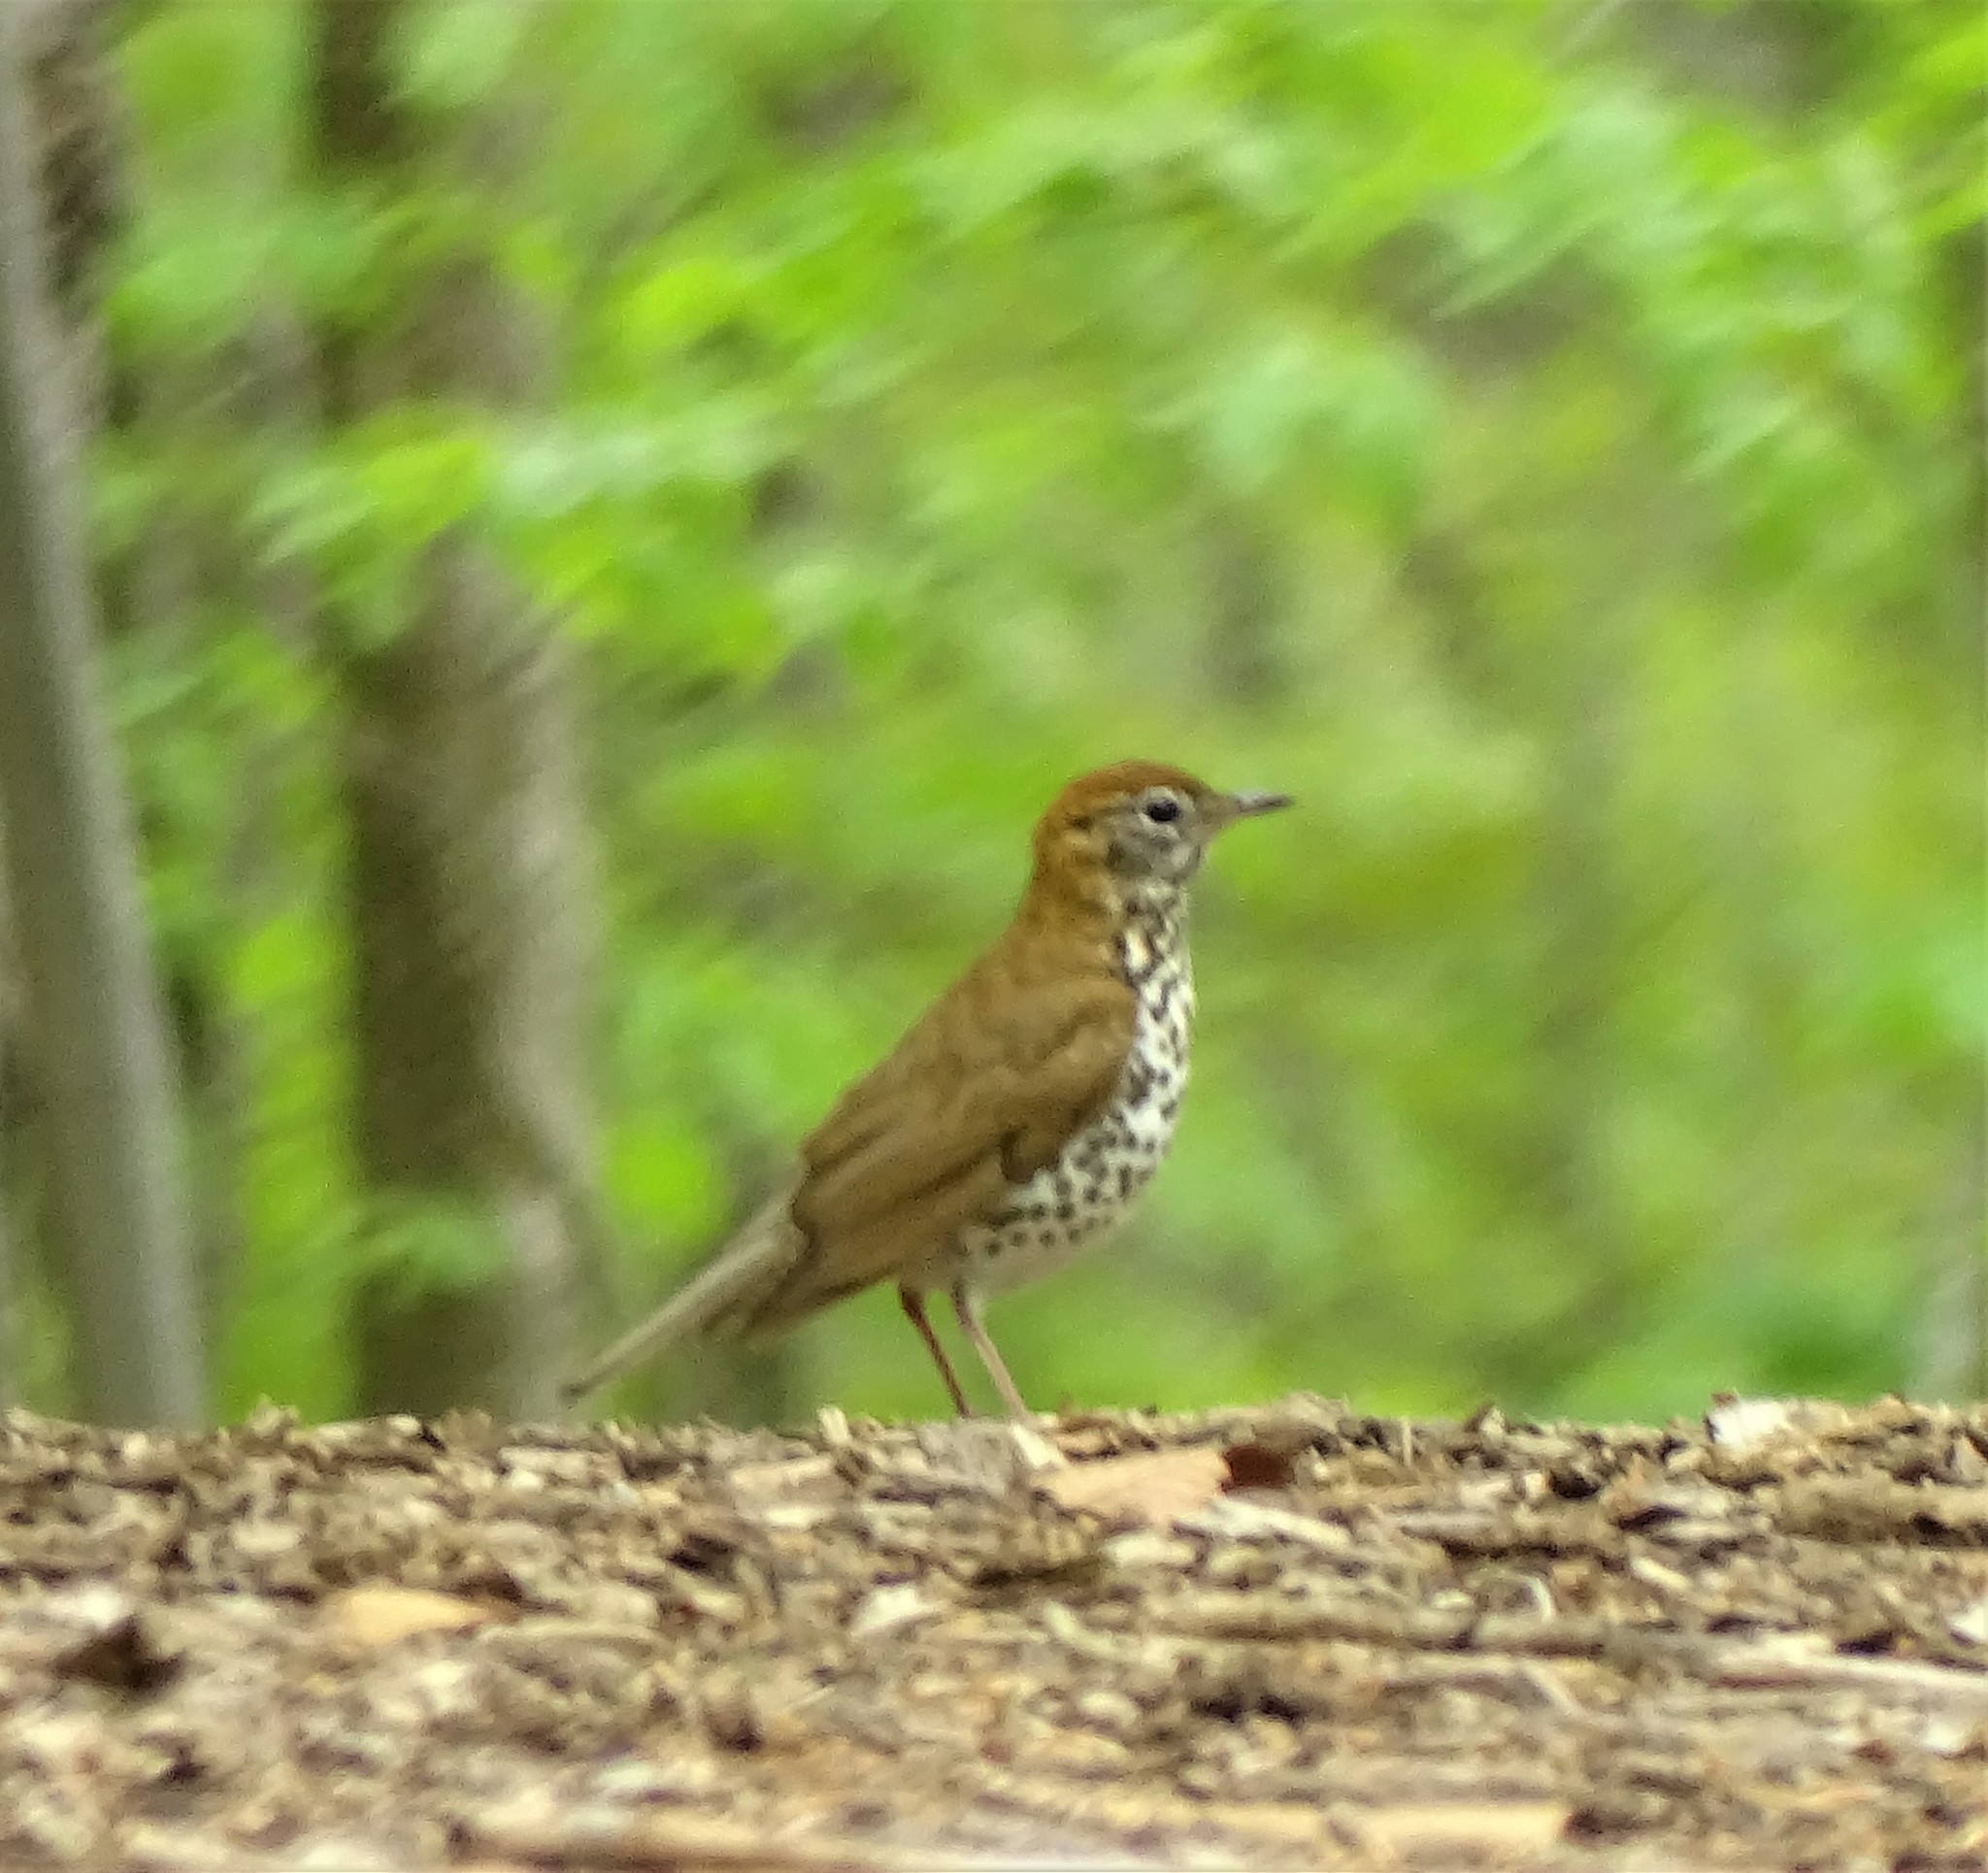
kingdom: Animalia
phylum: Chordata
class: Aves
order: Passeriformes
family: Turdidae
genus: Hylocichla
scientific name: Hylocichla mustelina
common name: Wood thrush
